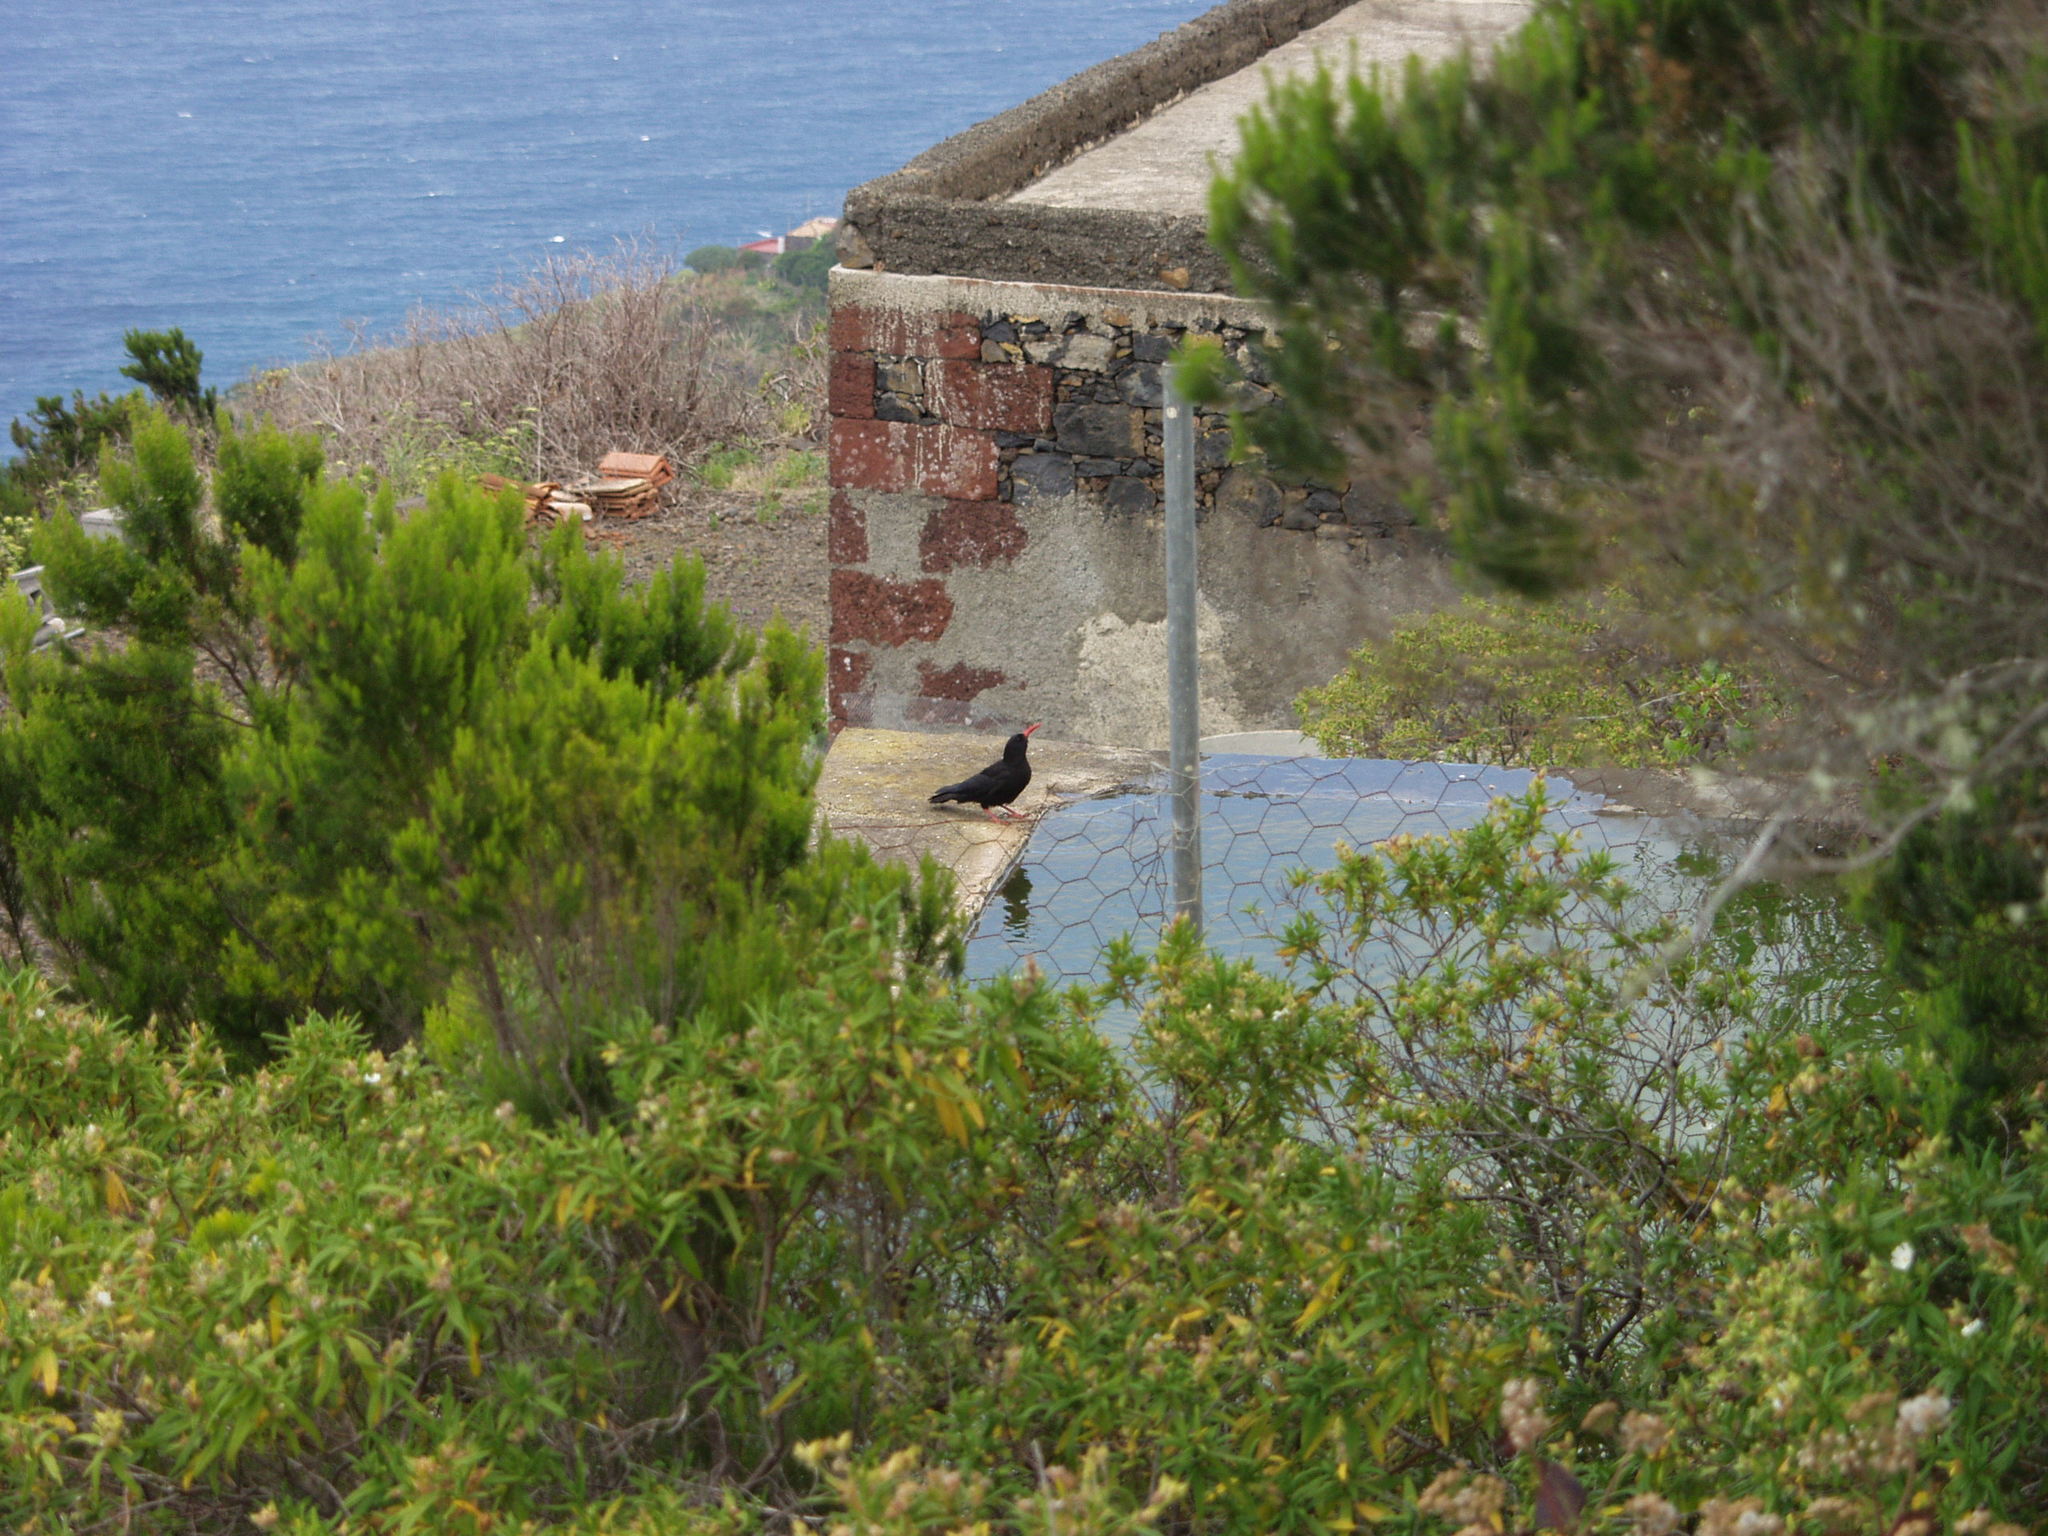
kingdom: Animalia
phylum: Chordata
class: Aves
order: Passeriformes
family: Corvidae
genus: Pyrrhocorax
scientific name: Pyrrhocorax pyrrhocorax
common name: Red-billed chough
